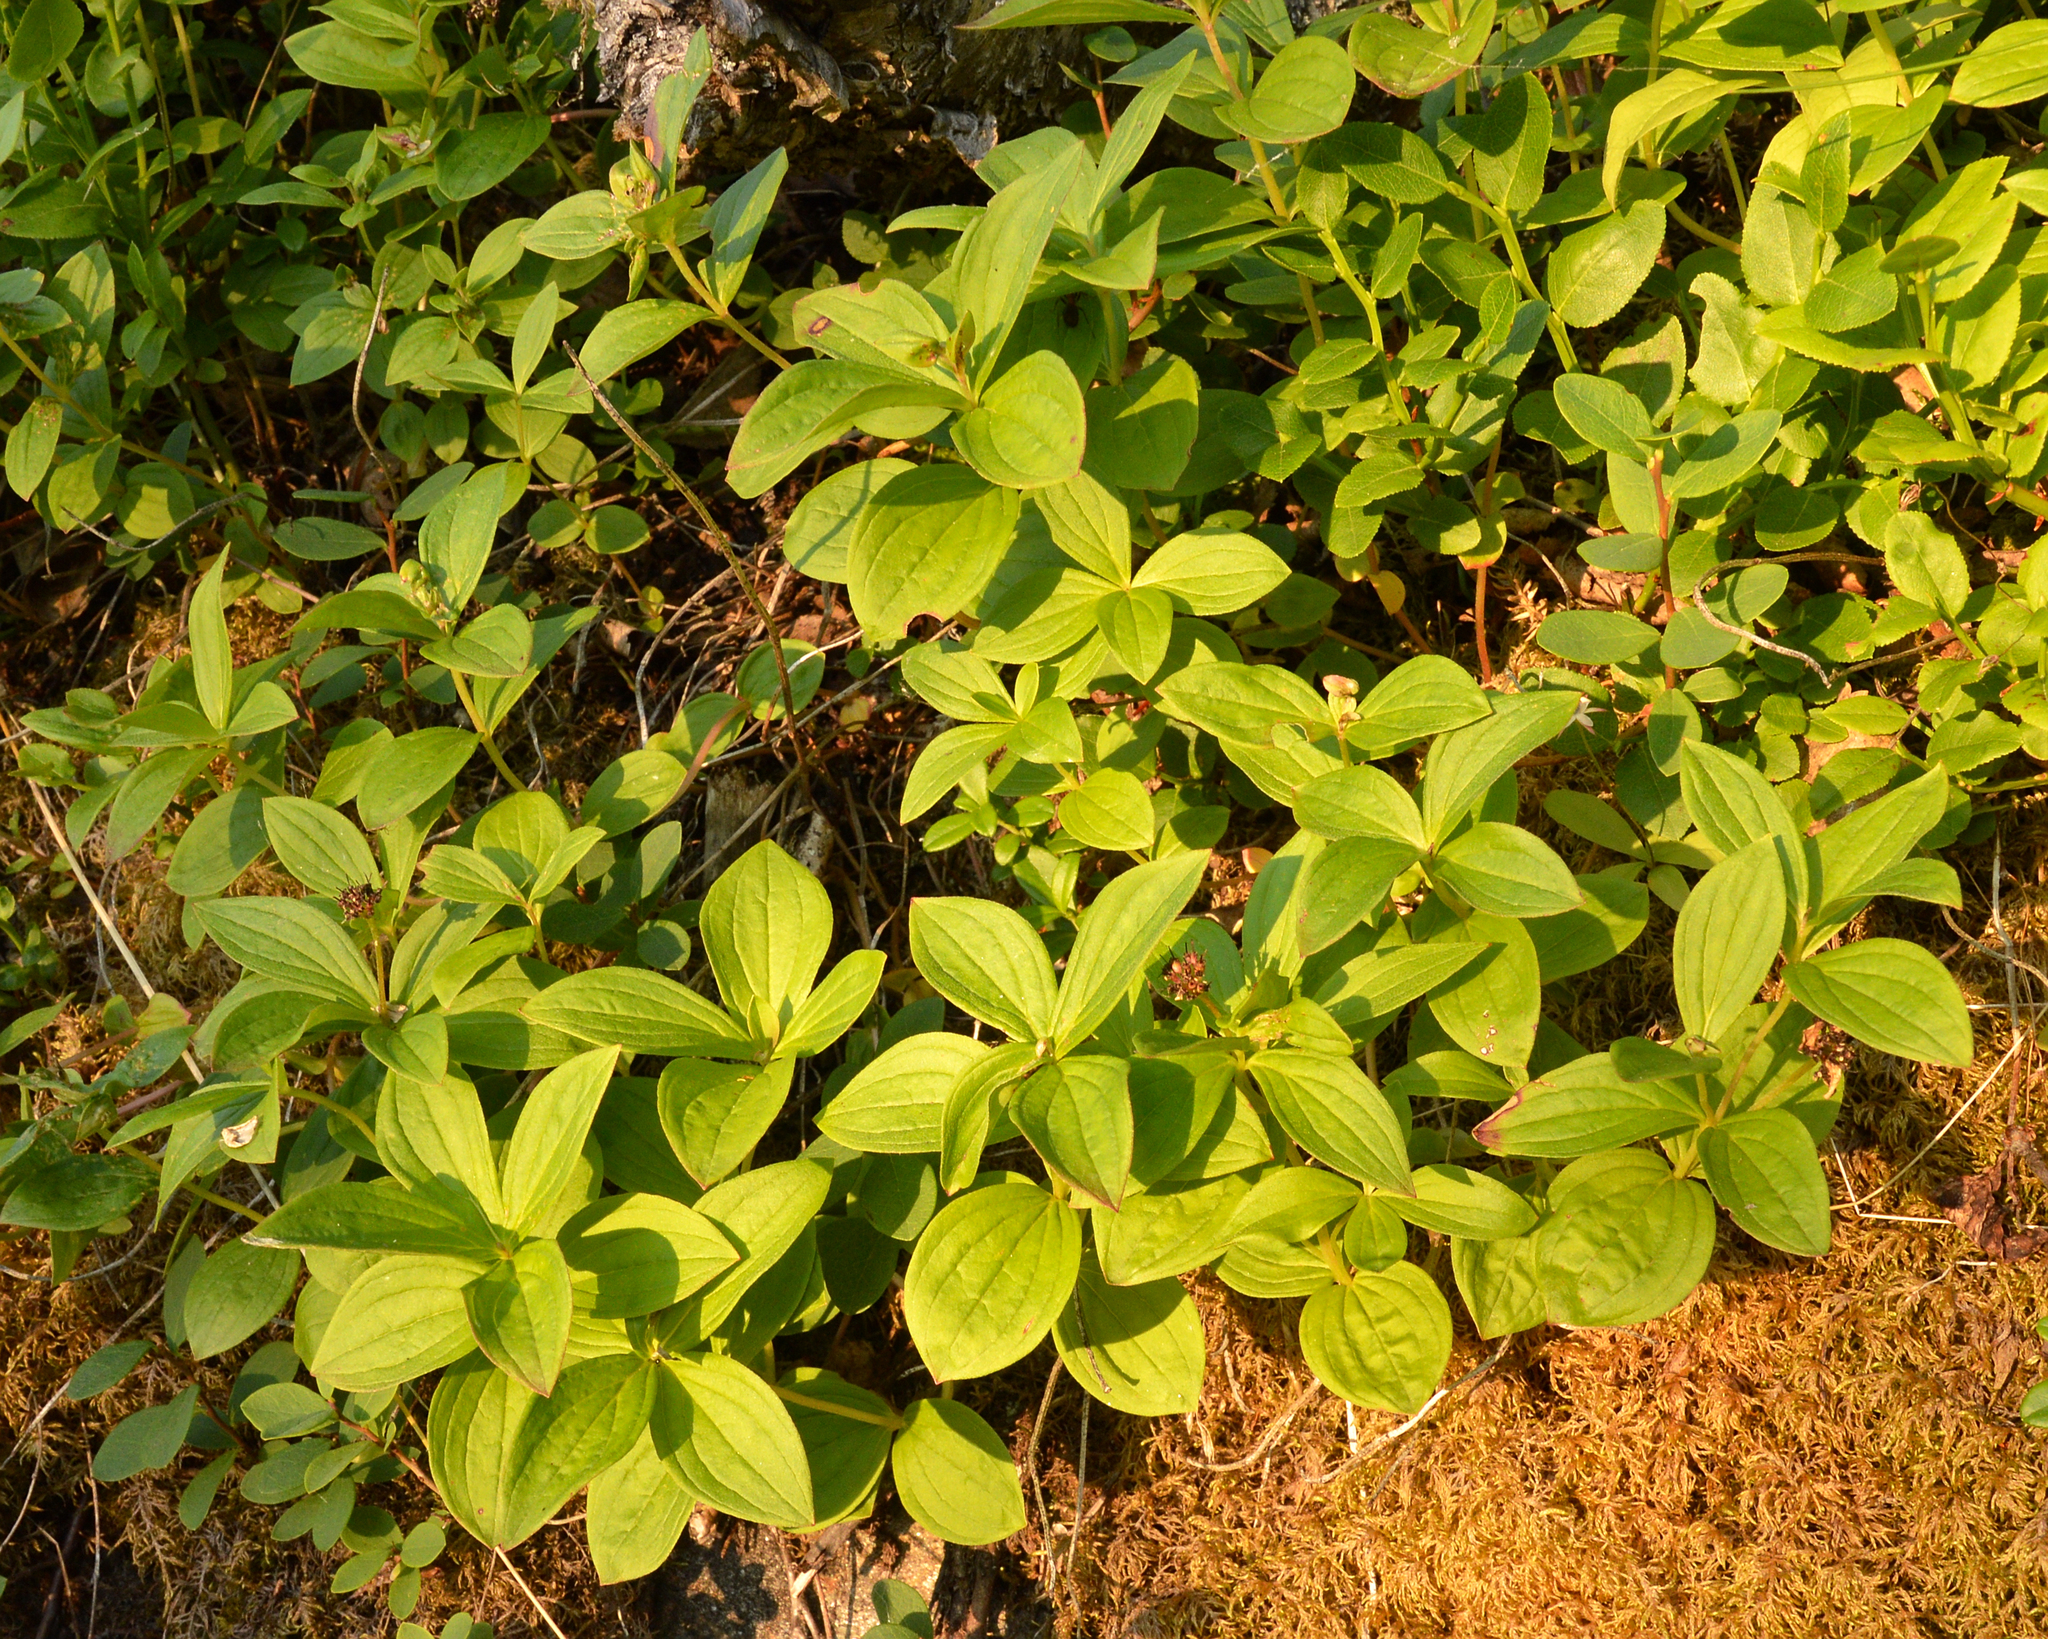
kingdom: Plantae
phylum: Tracheophyta
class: Magnoliopsida
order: Cornales
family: Cornaceae
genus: Cornus
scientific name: Cornus suecica
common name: Dwarf cornel
